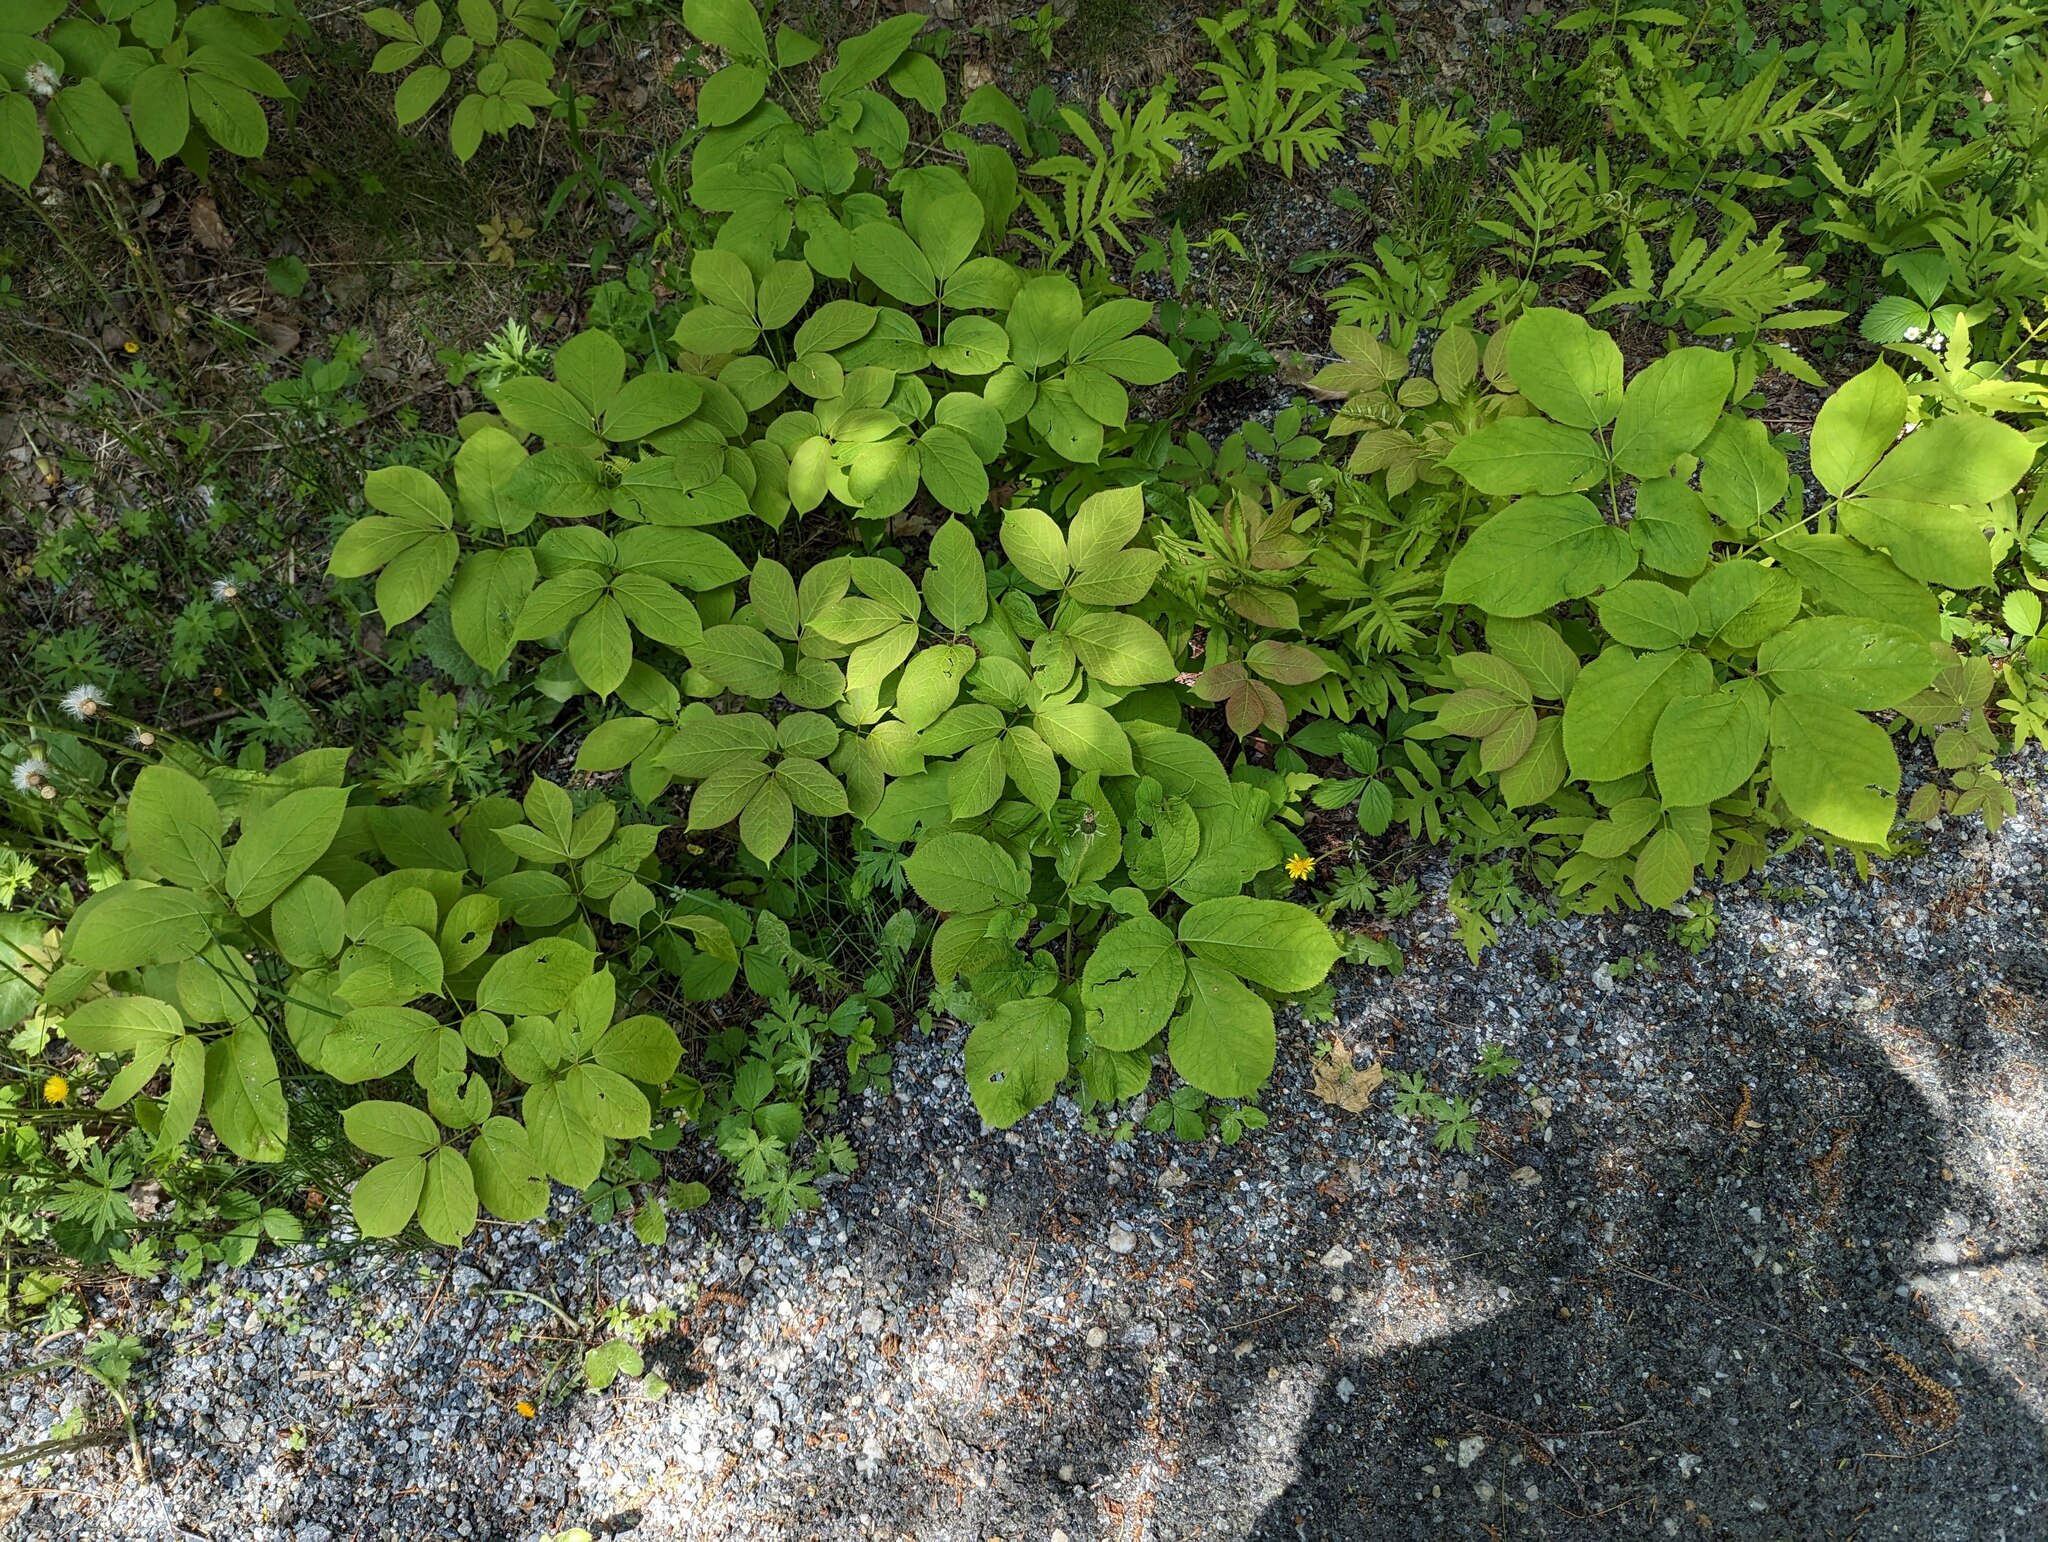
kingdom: Plantae
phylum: Tracheophyta
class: Magnoliopsida
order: Apiales
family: Araliaceae
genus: Aralia
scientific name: Aralia nudicaulis
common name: Wild sarsaparilla
